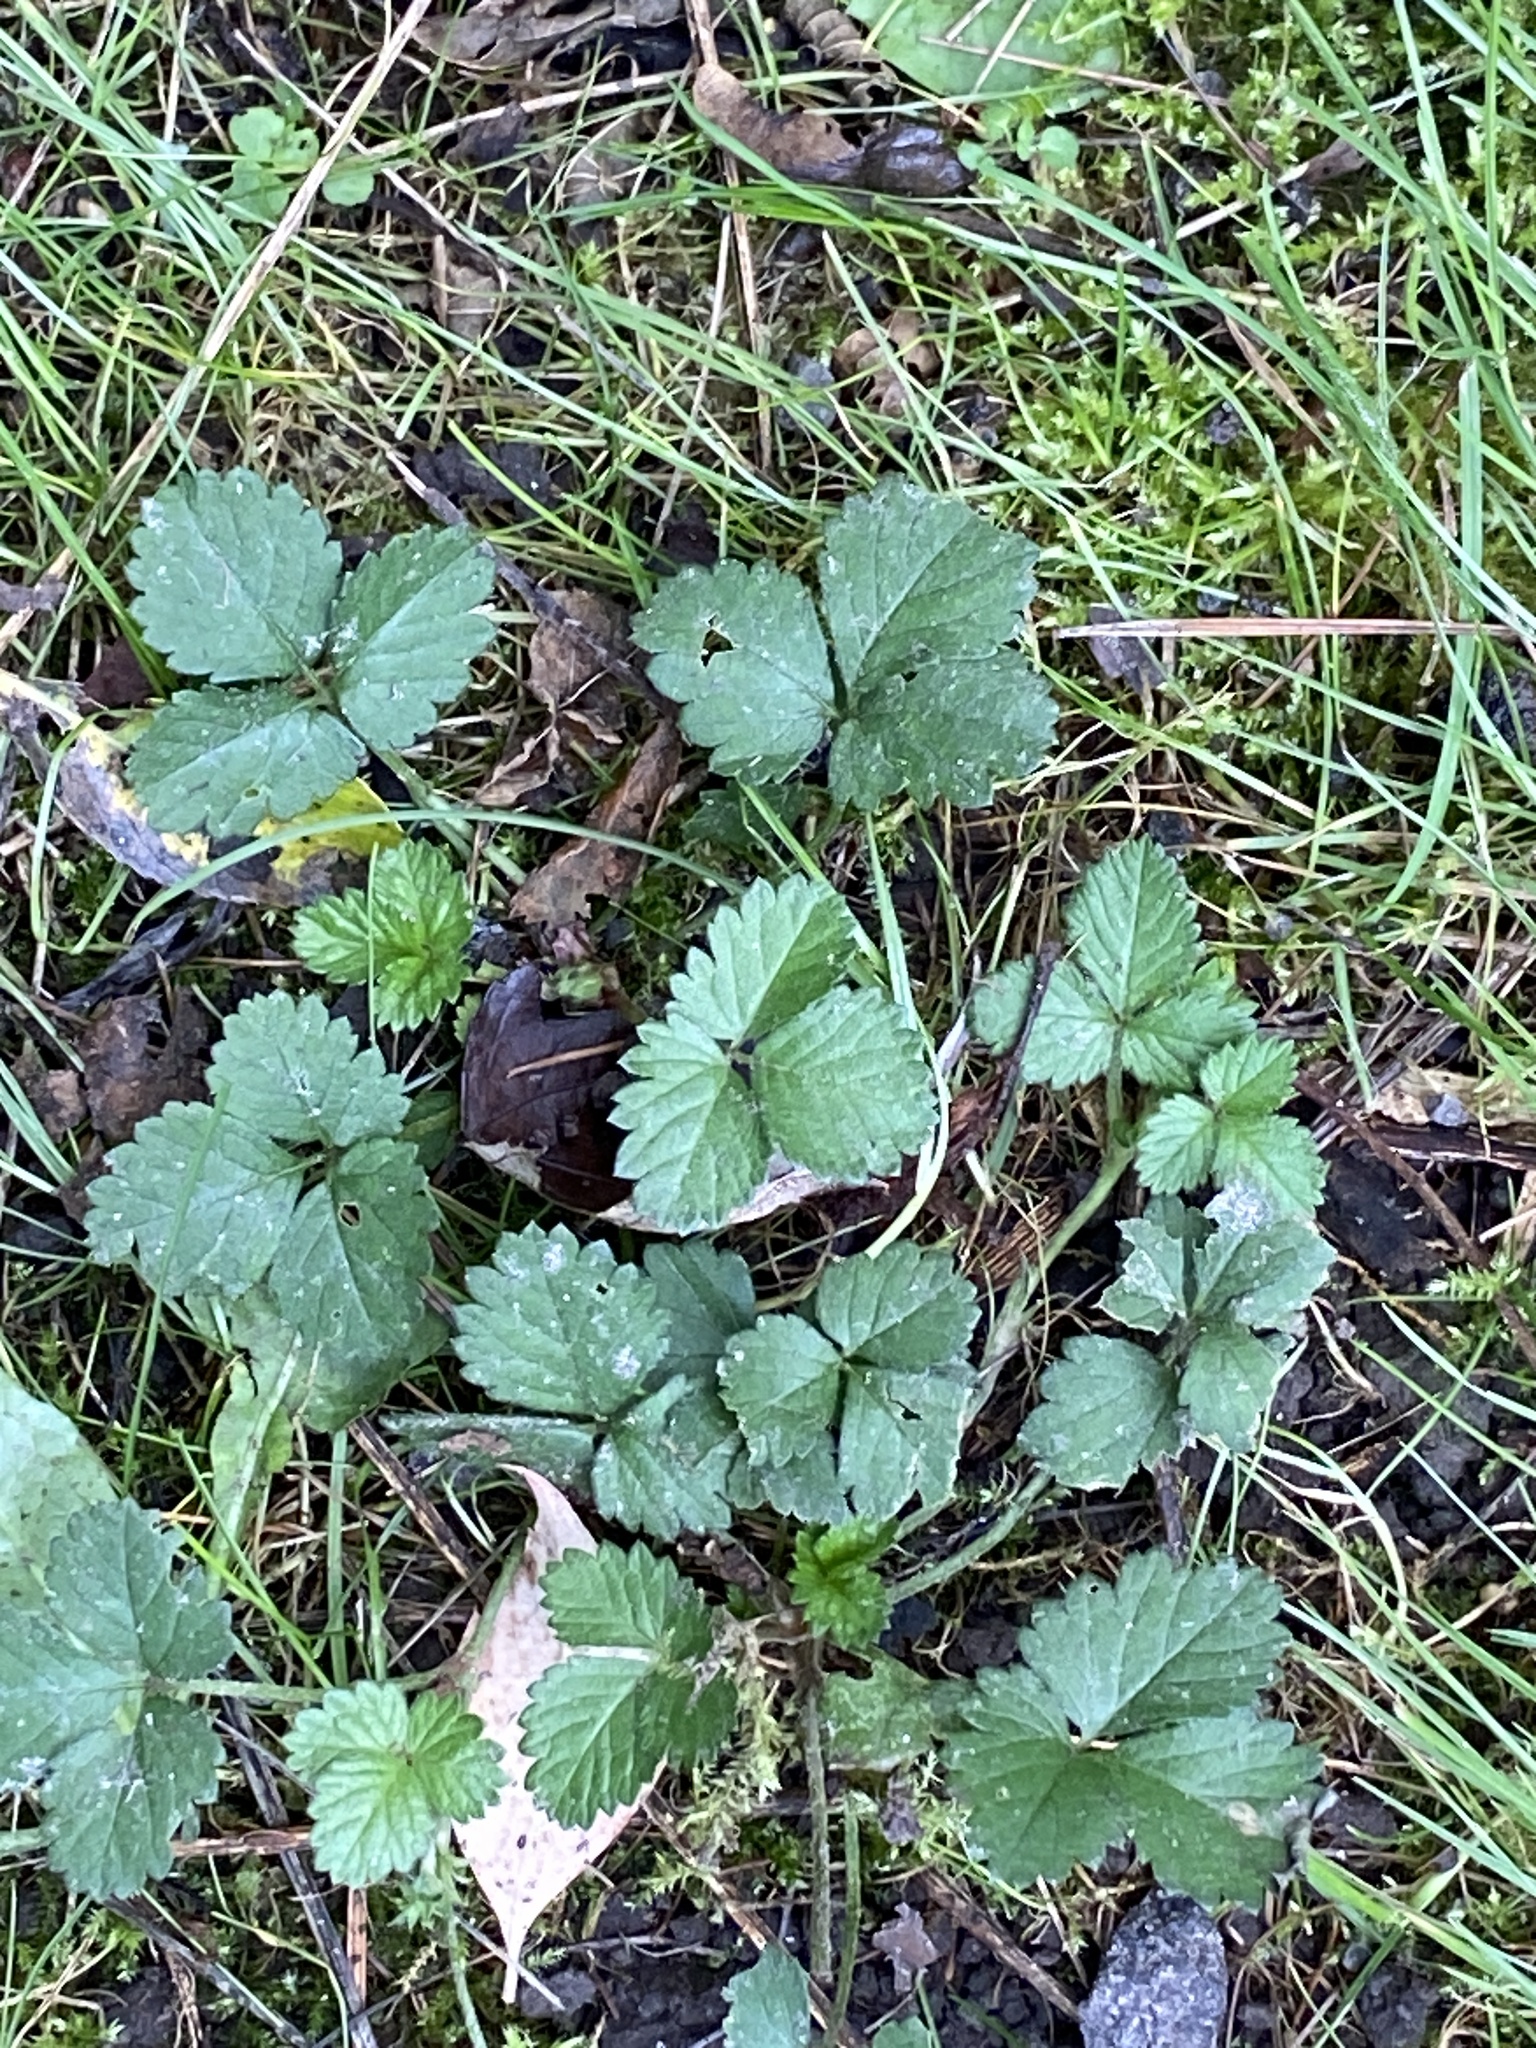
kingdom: Plantae
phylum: Tracheophyta
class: Magnoliopsida
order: Rosales
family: Rosaceae
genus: Potentilla
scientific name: Potentilla indica
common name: Yellow-flowered strawberry
